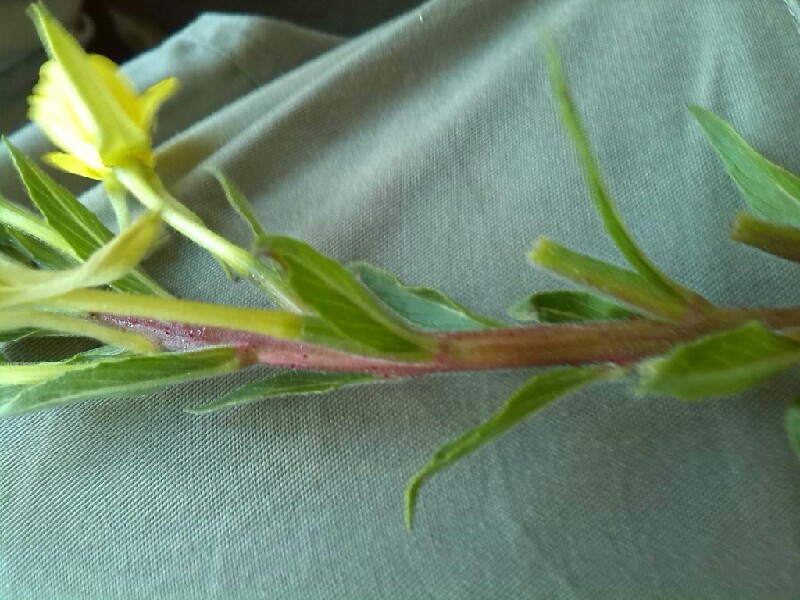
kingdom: Plantae
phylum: Tracheophyta
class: Magnoliopsida
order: Myrtales
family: Onagraceae
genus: Oenothera
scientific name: Oenothera rubricaulis
